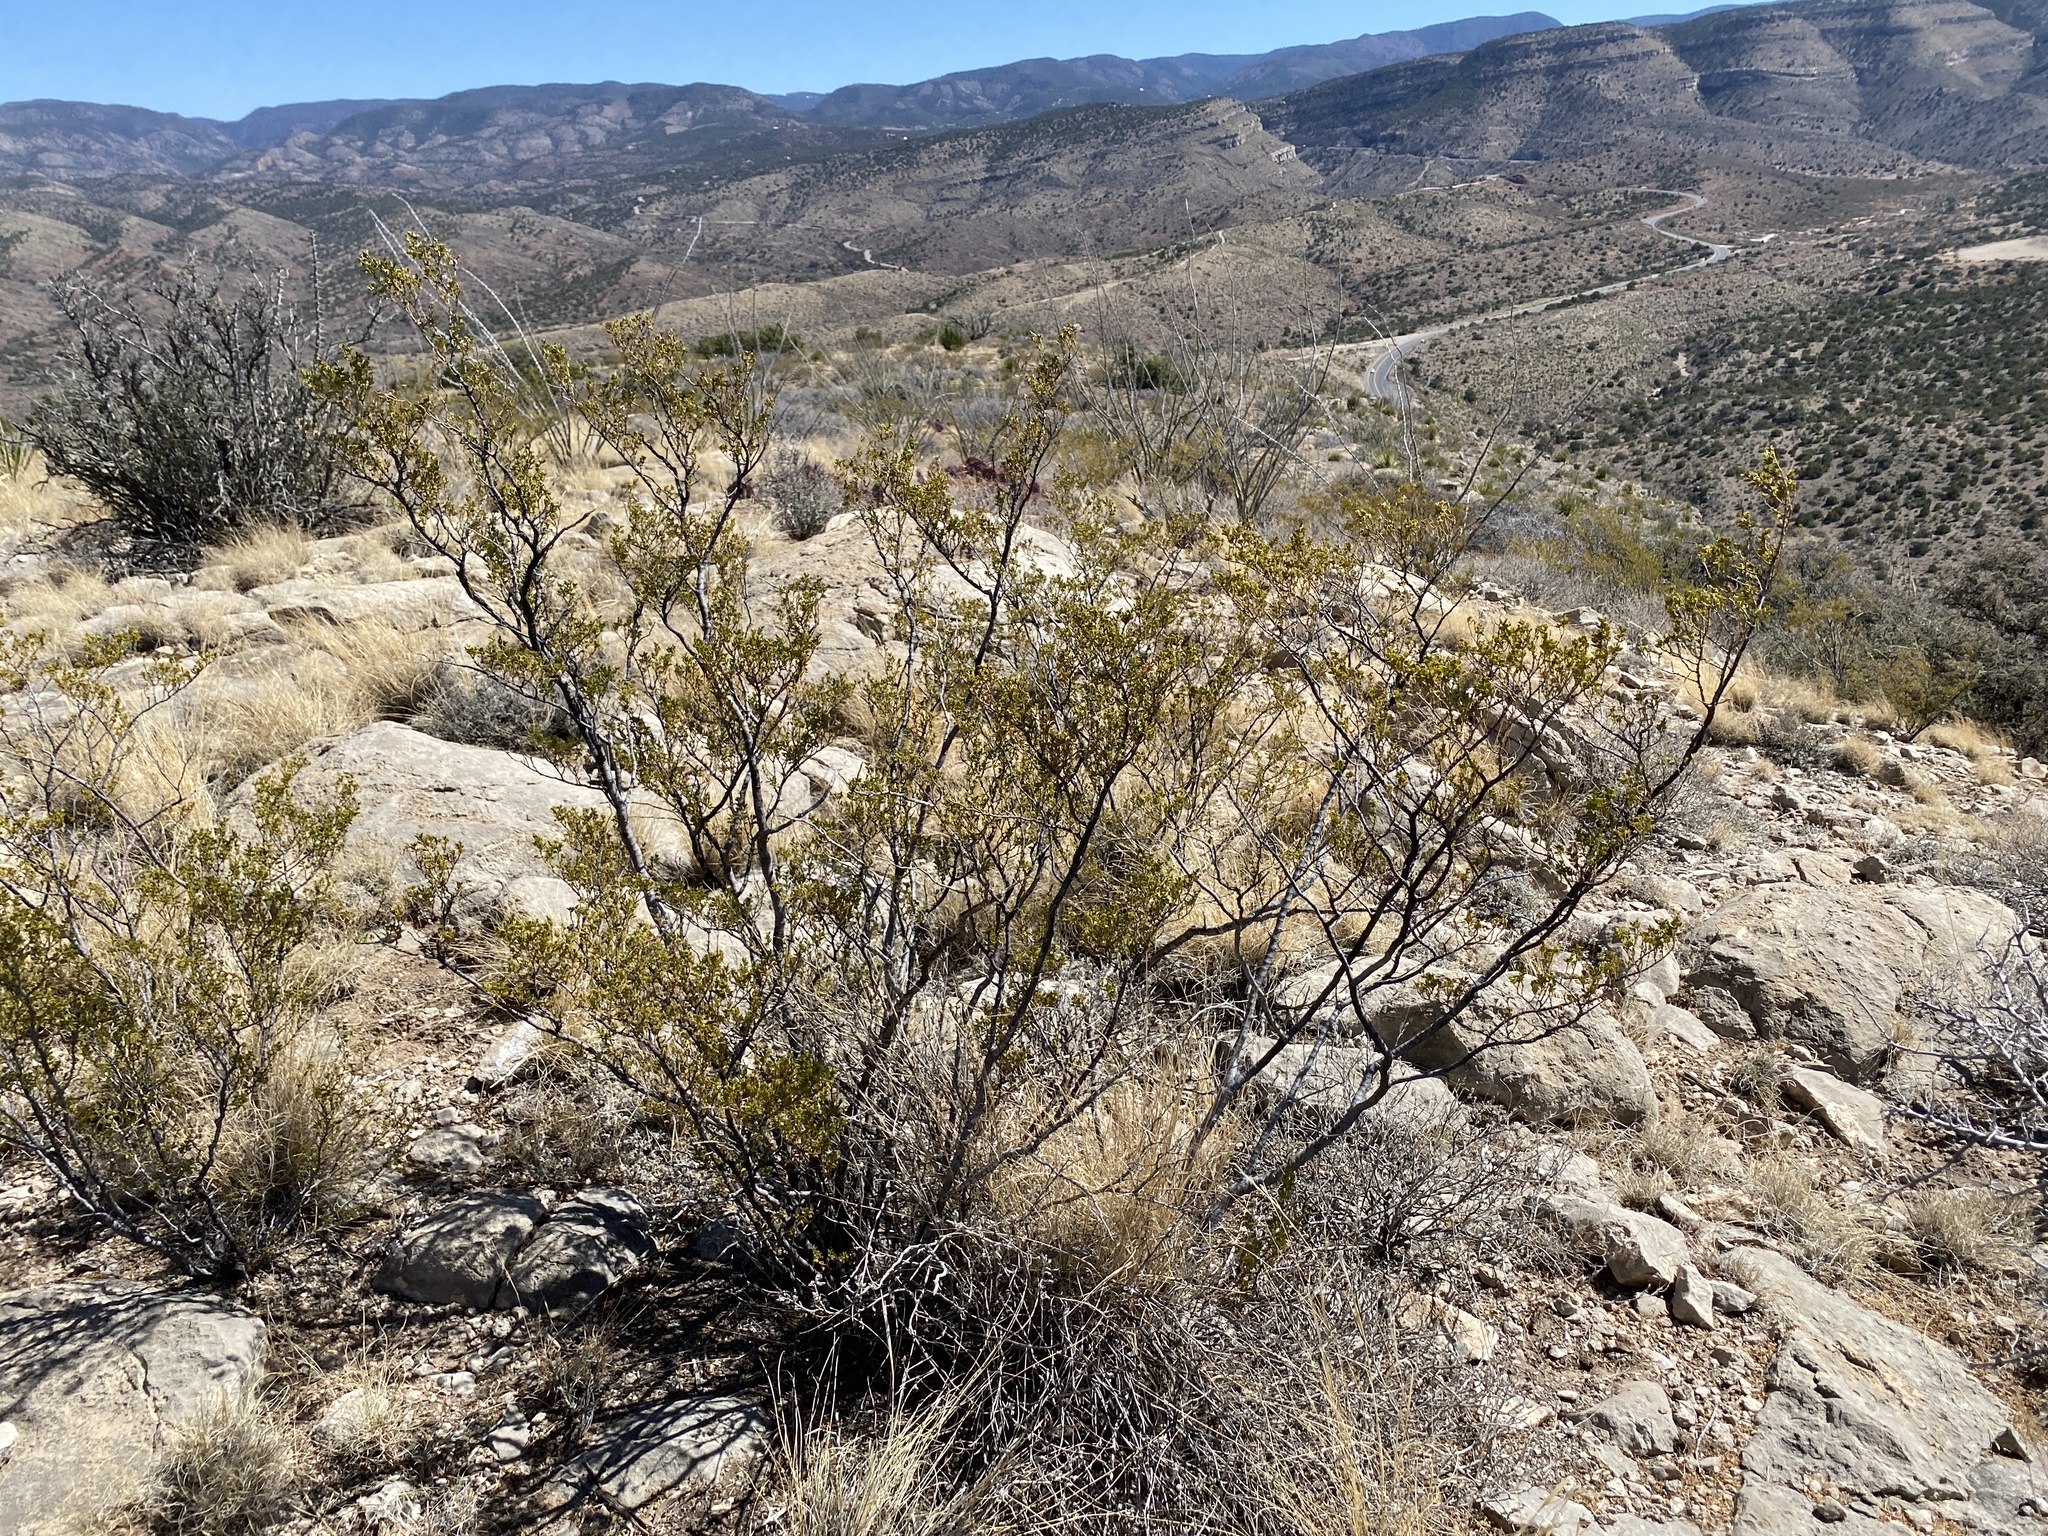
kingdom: Plantae
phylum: Tracheophyta
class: Magnoliopsida
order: Zygophyllales
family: Zygophyllaceae
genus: Larrea
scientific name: Larrea tridentata
